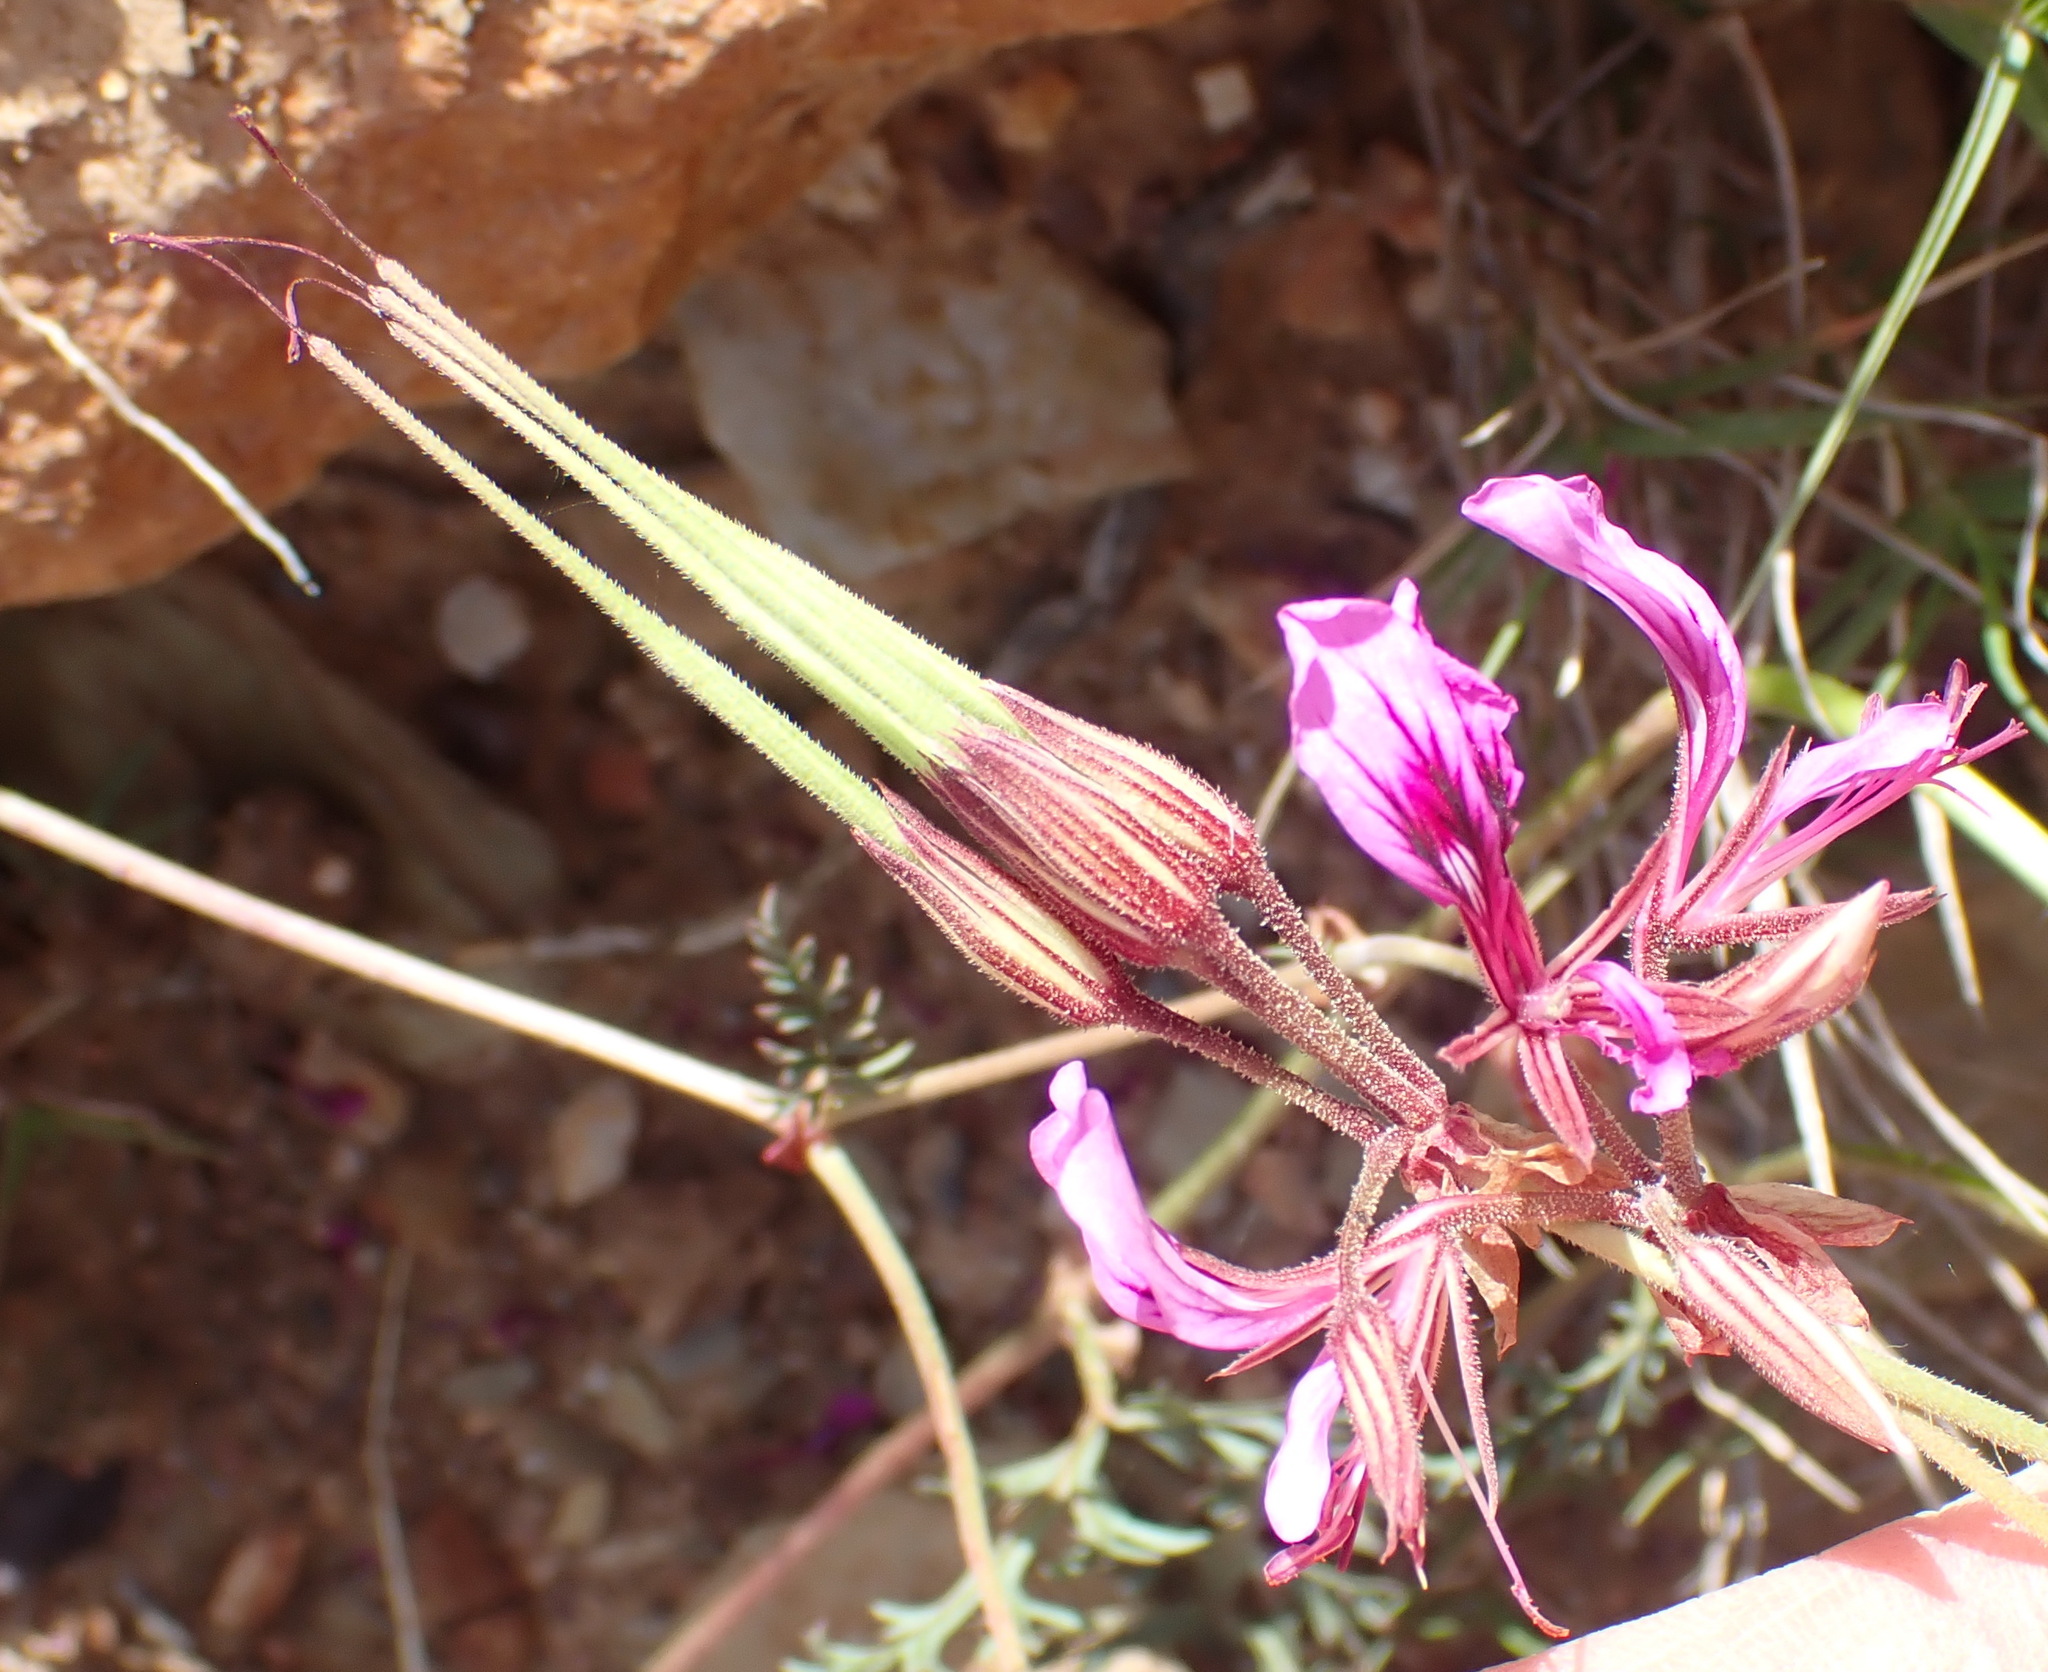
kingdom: Plantae
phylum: Tracheophyta
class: Magnoliopsida
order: Geraniales
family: Geraniaceae
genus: Pelargonium
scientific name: Pelargonium multicaule
